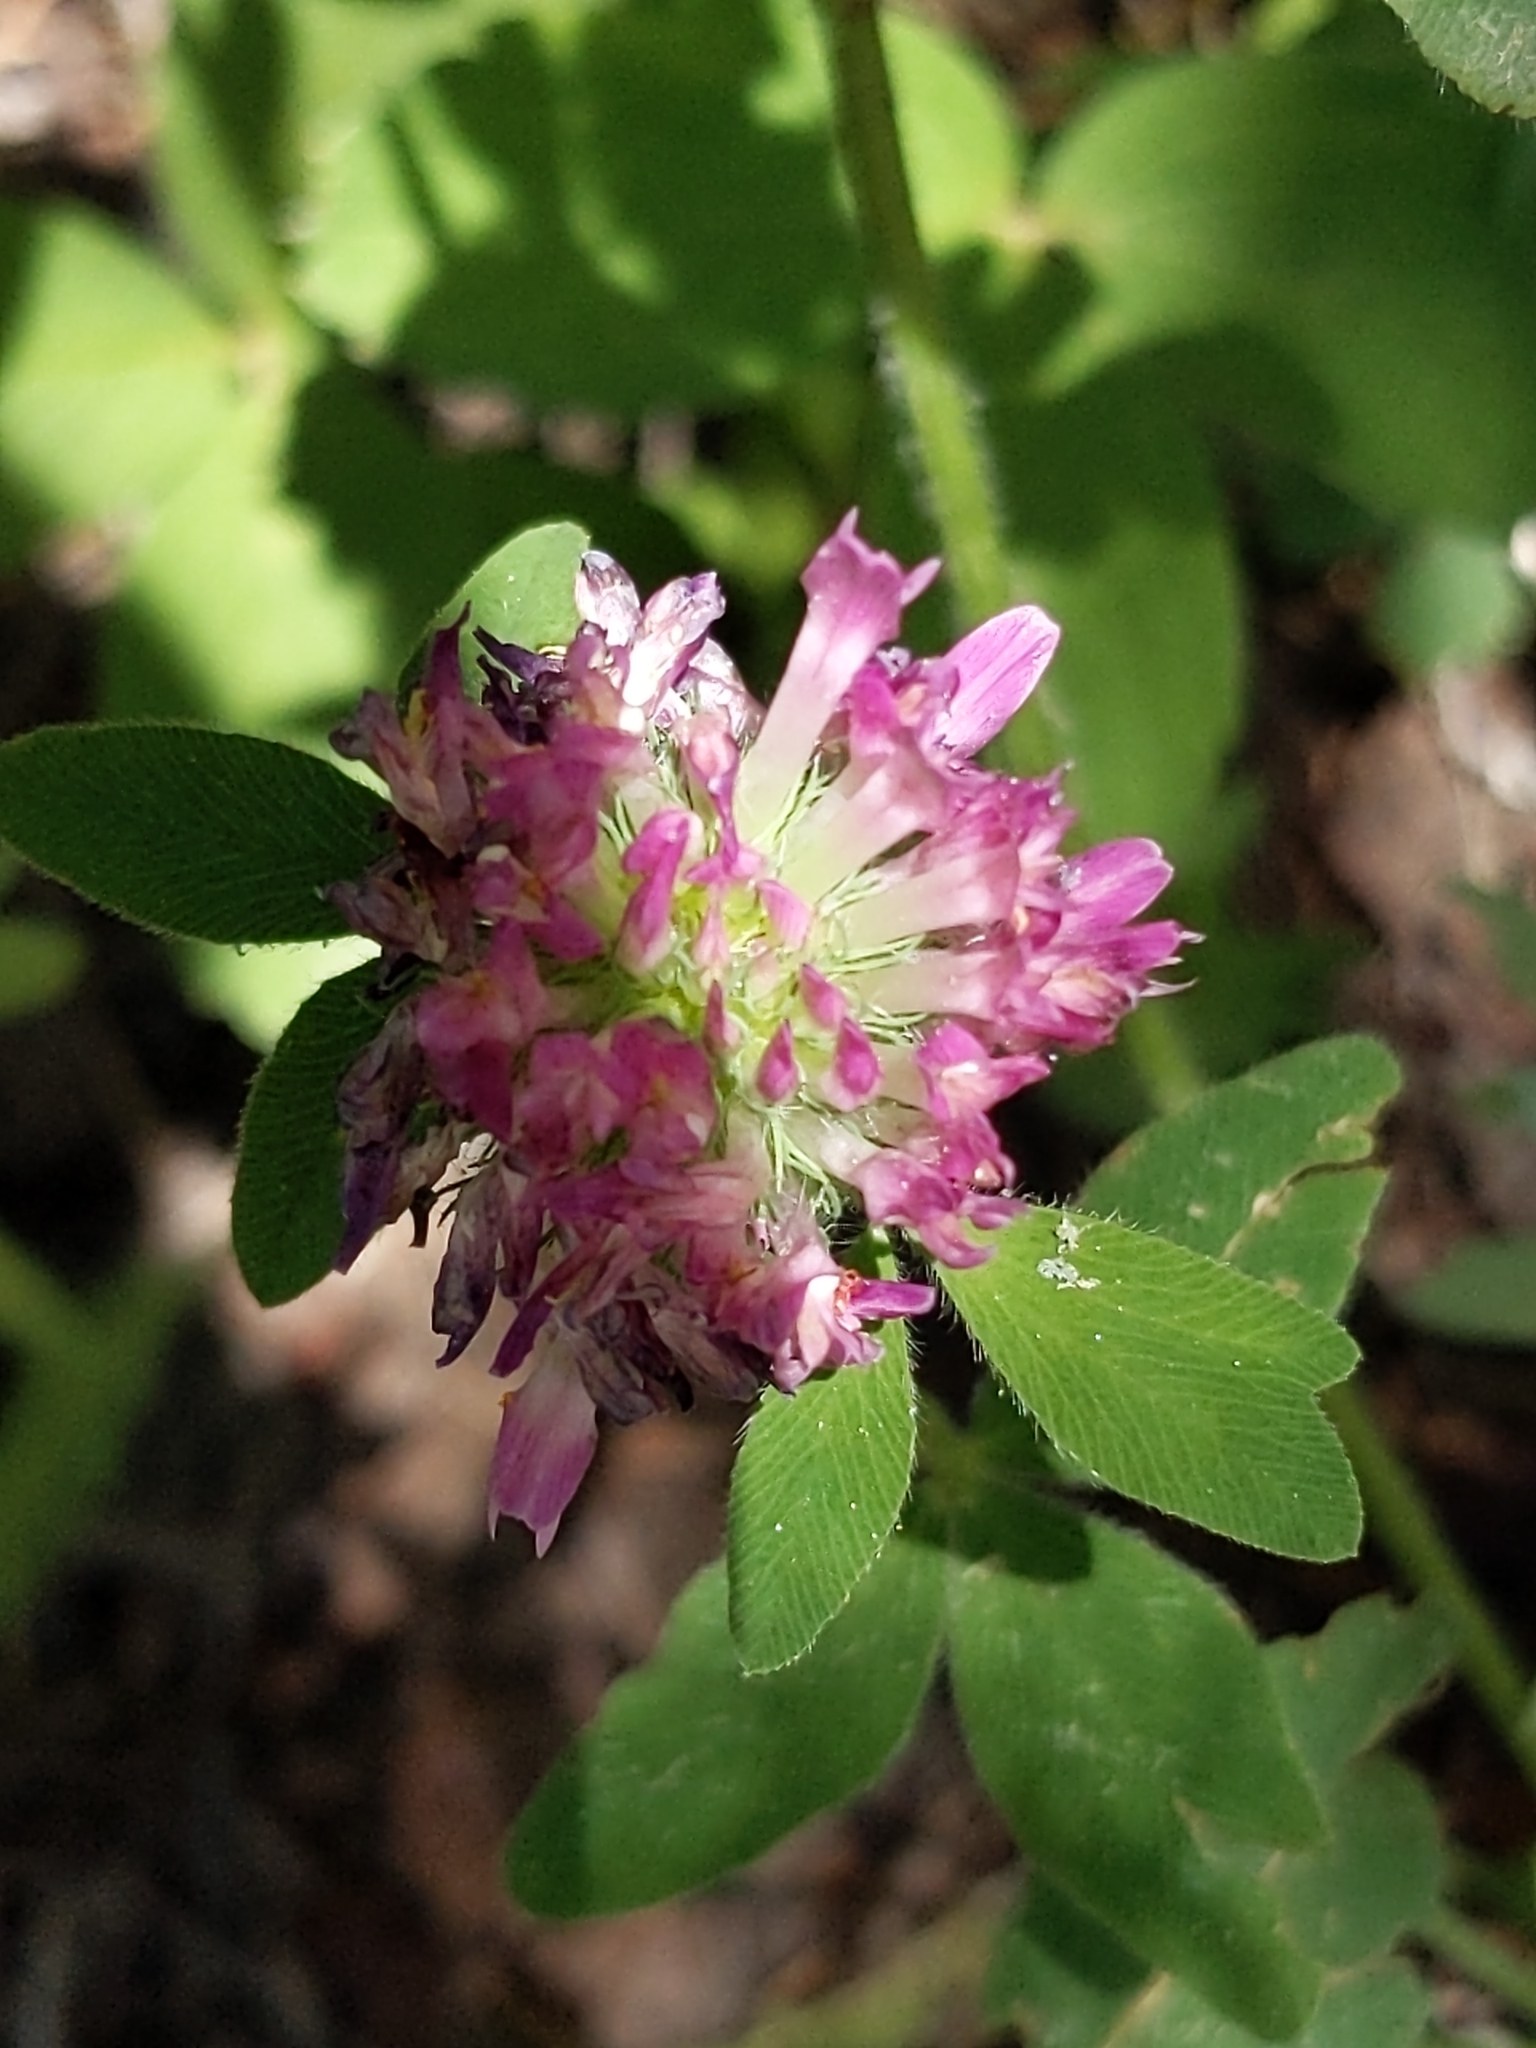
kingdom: Plantae
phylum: Tracheophyta
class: Magnoliopsida
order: Fabales
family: Fabaceae
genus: Trifolium
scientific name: Trifolium pratense
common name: Red clover
